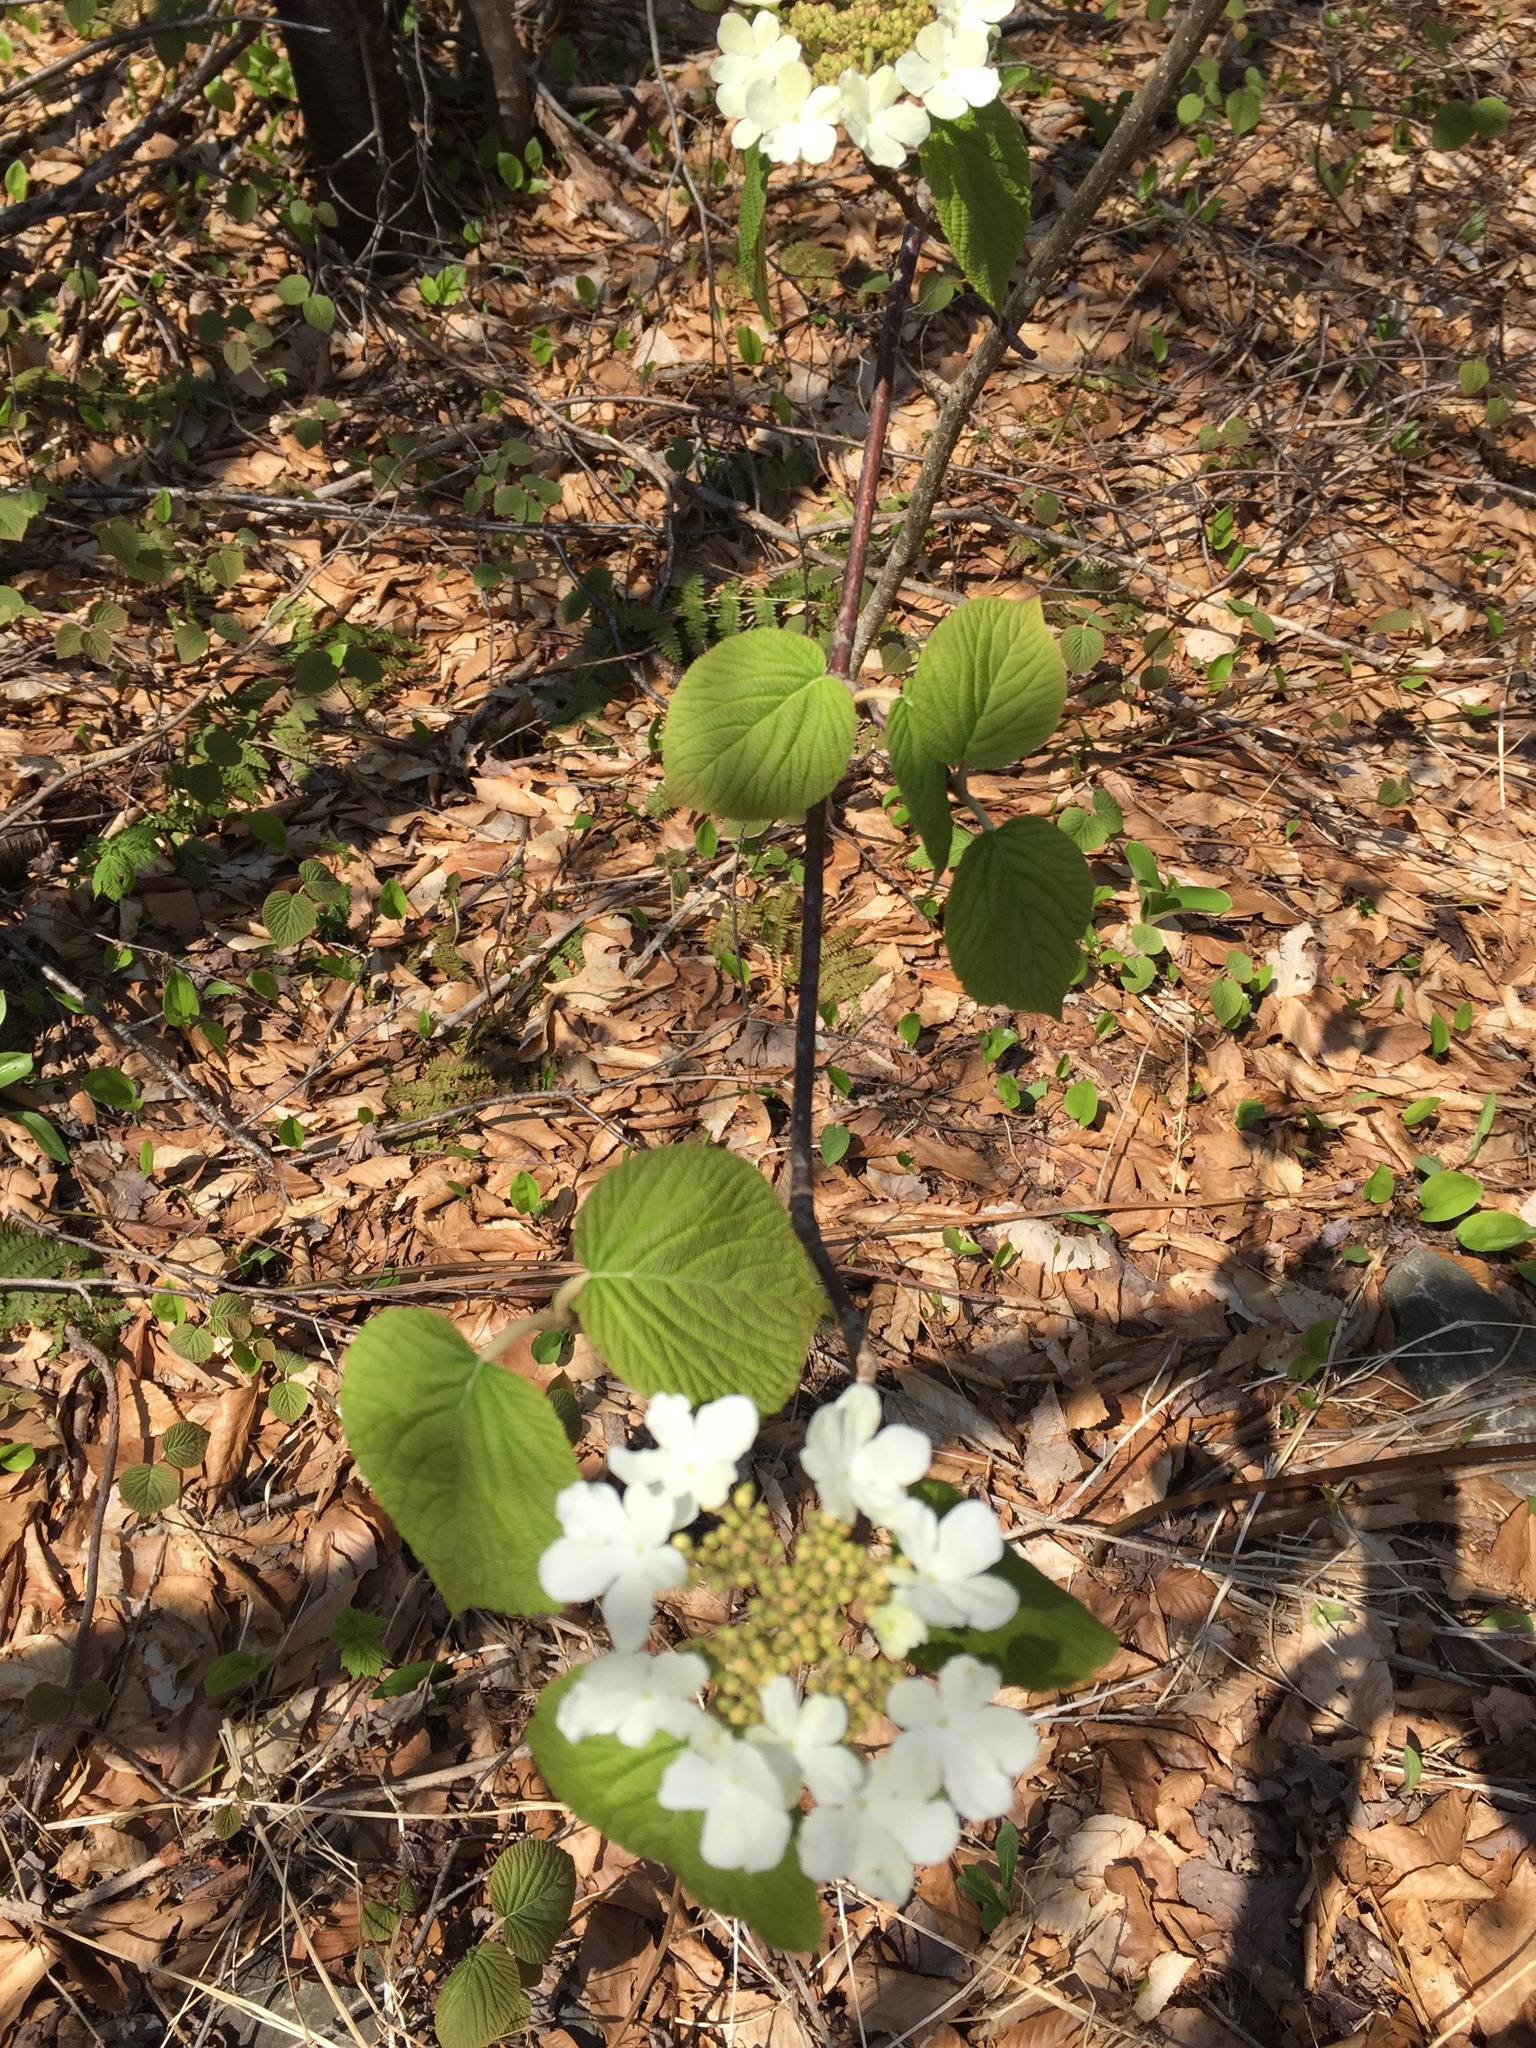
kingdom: Plantae
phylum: Tracheophyta
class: Magnoliopsida
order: Dipsacales
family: Viburnaceae
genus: Viburnum
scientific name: Viburnum lantanoides
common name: Hobblebush
